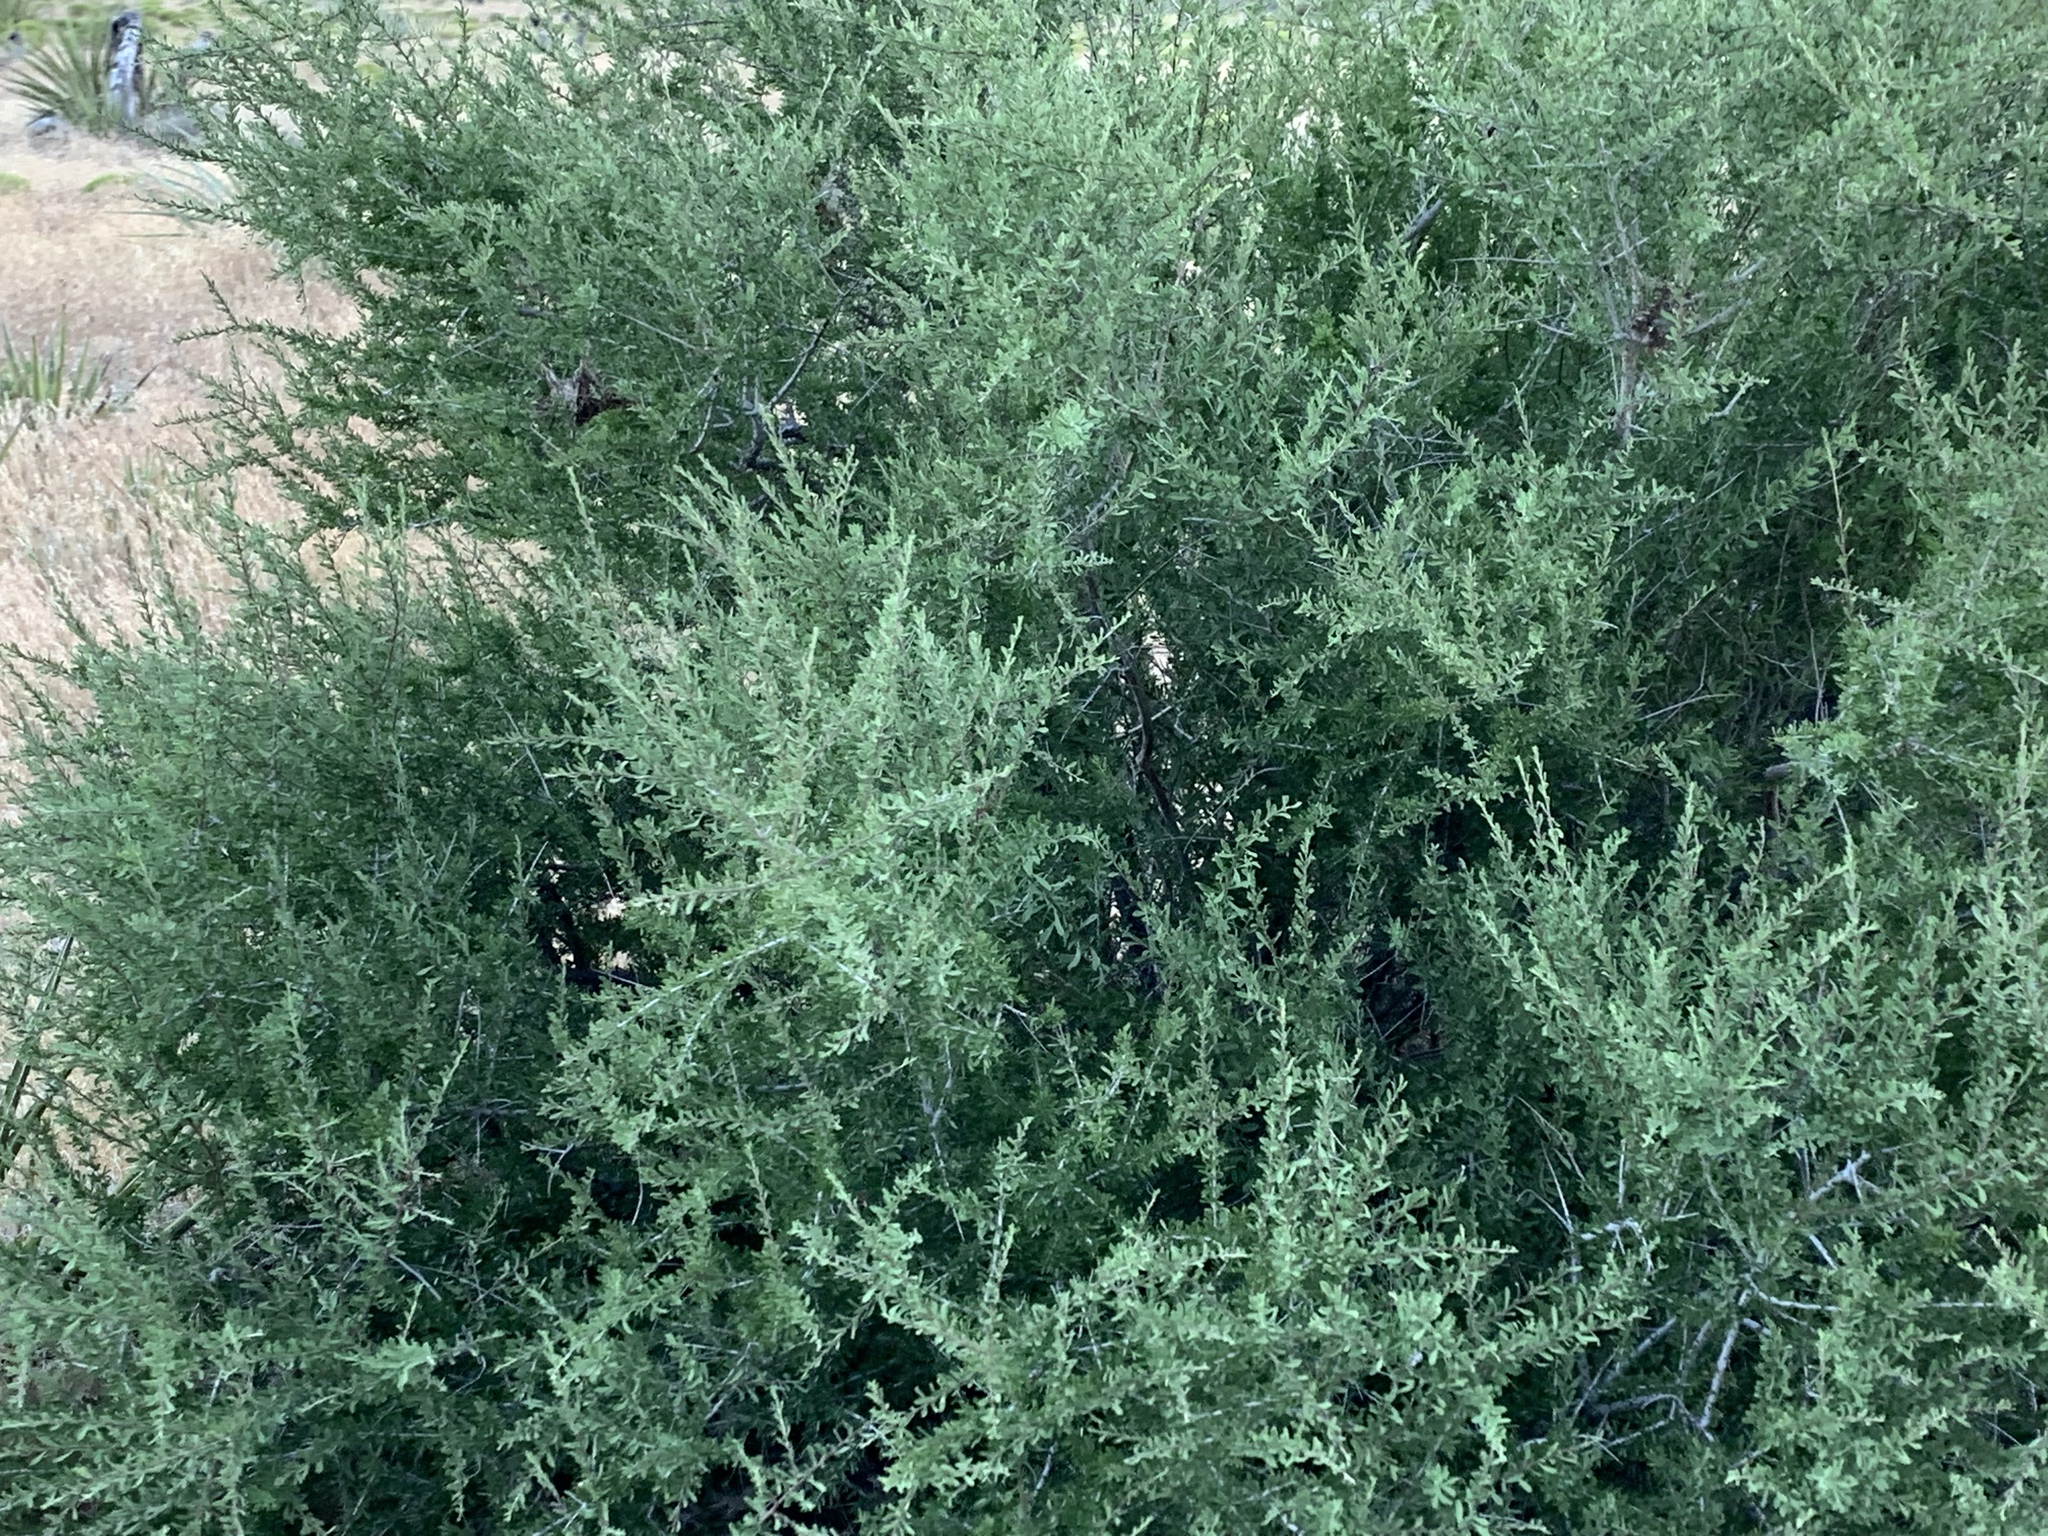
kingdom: Plantae
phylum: Tracheophyta
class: Magnoliopsida
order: Rosales
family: Rosaceae
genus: Prunus
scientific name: Prunus fasciculata
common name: Desert almond
